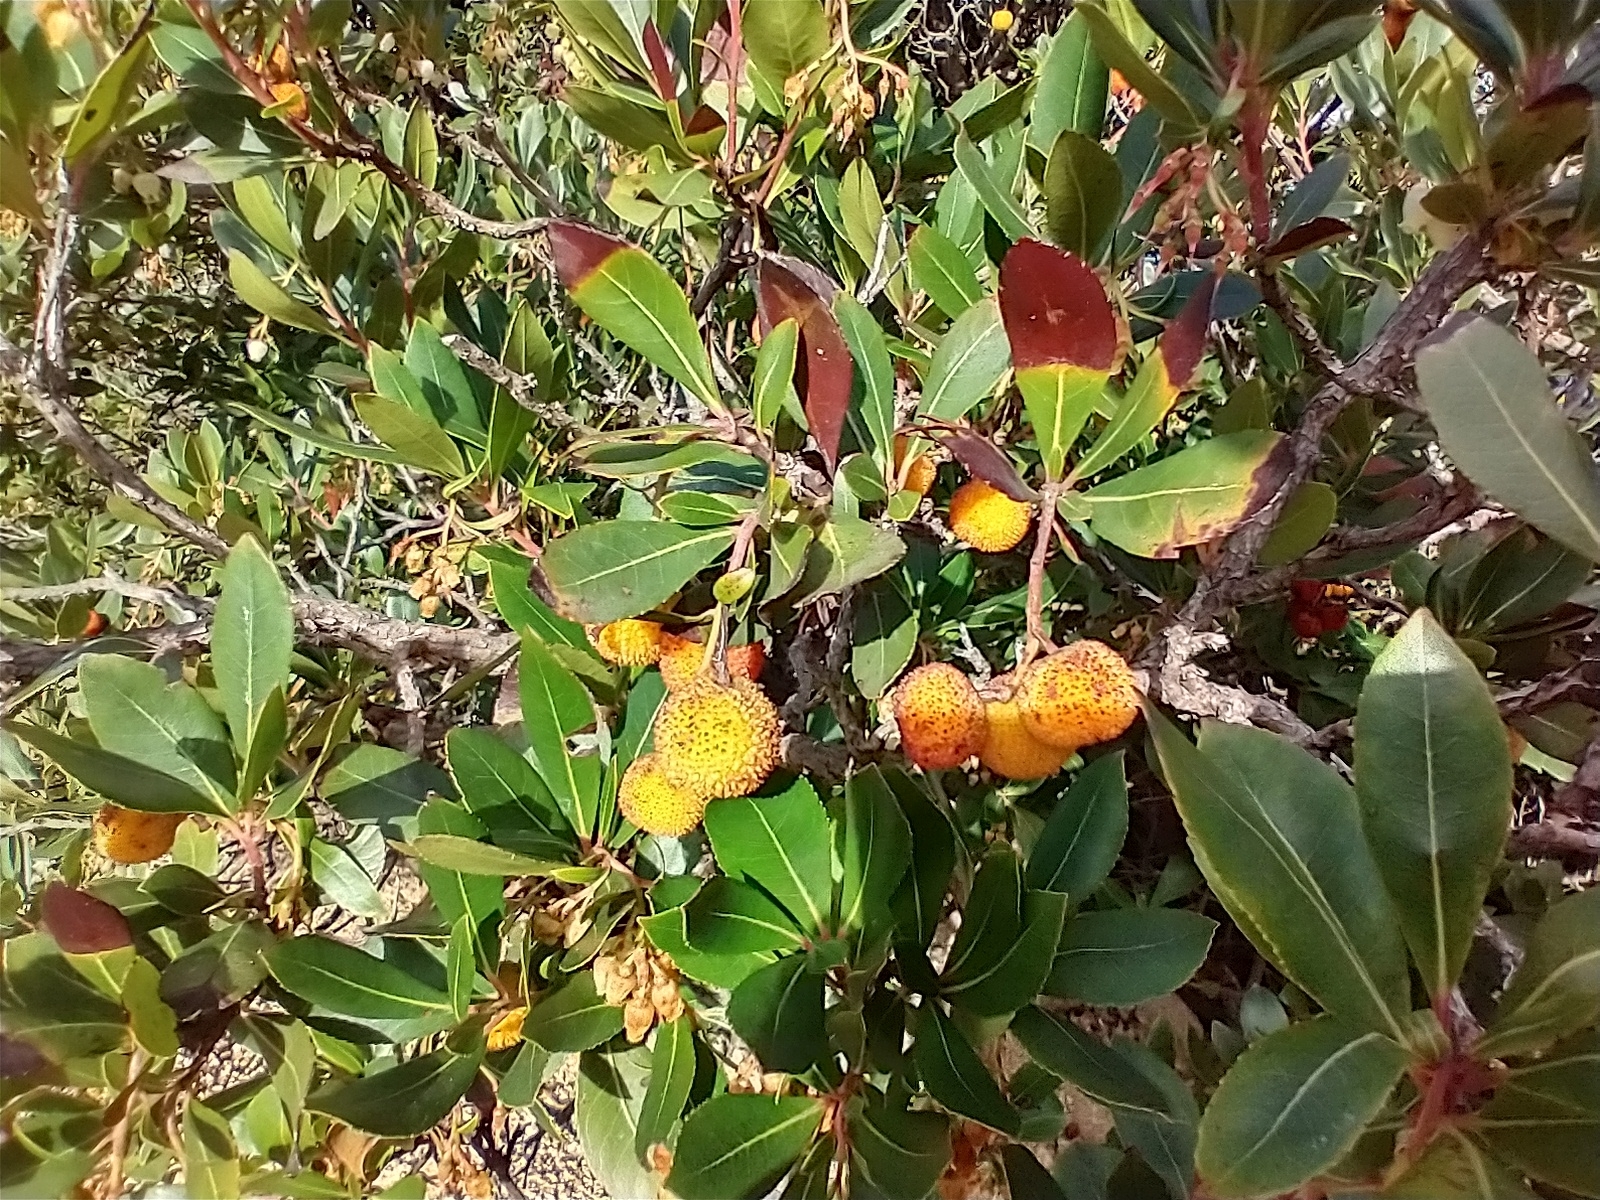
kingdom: Plantae
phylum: Tracheophyta
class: Magnoliopsida
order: Ericales
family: Ericaceae
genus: Arbutus
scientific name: Arbutus unedo
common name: Strawberry-tree
